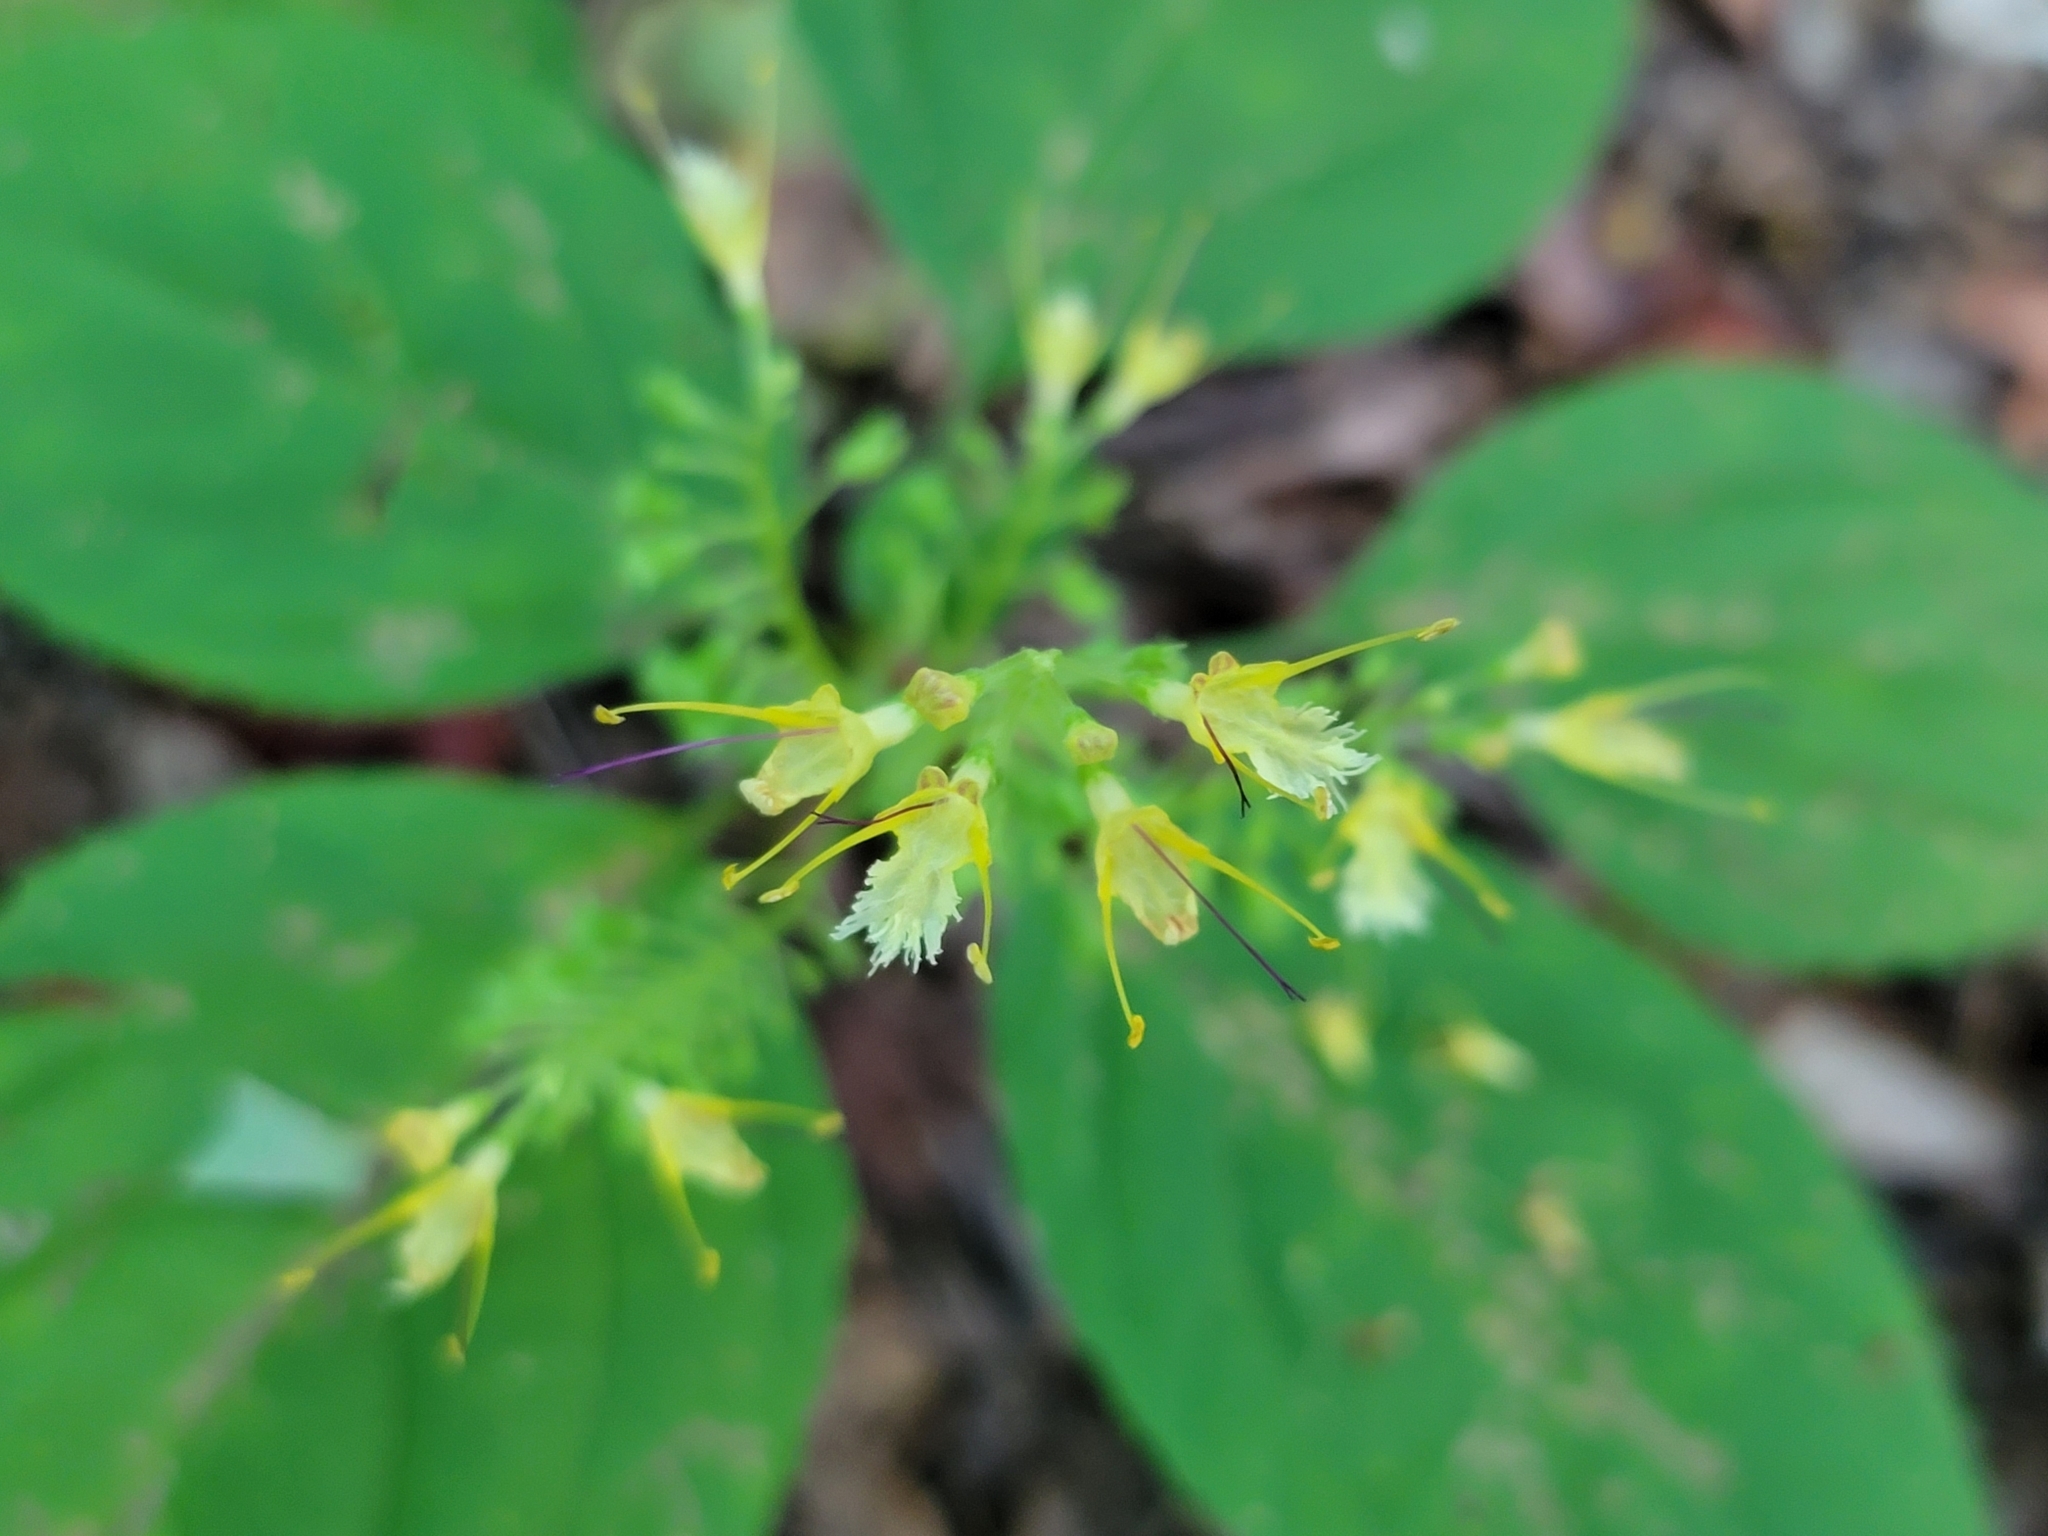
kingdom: Plantae
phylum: Tracheophyta
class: Magnoliopsida
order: Lamiales
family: Lamiaceae
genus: Collinsonia
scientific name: Collinsonia canadensis
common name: Northern horsebalm
